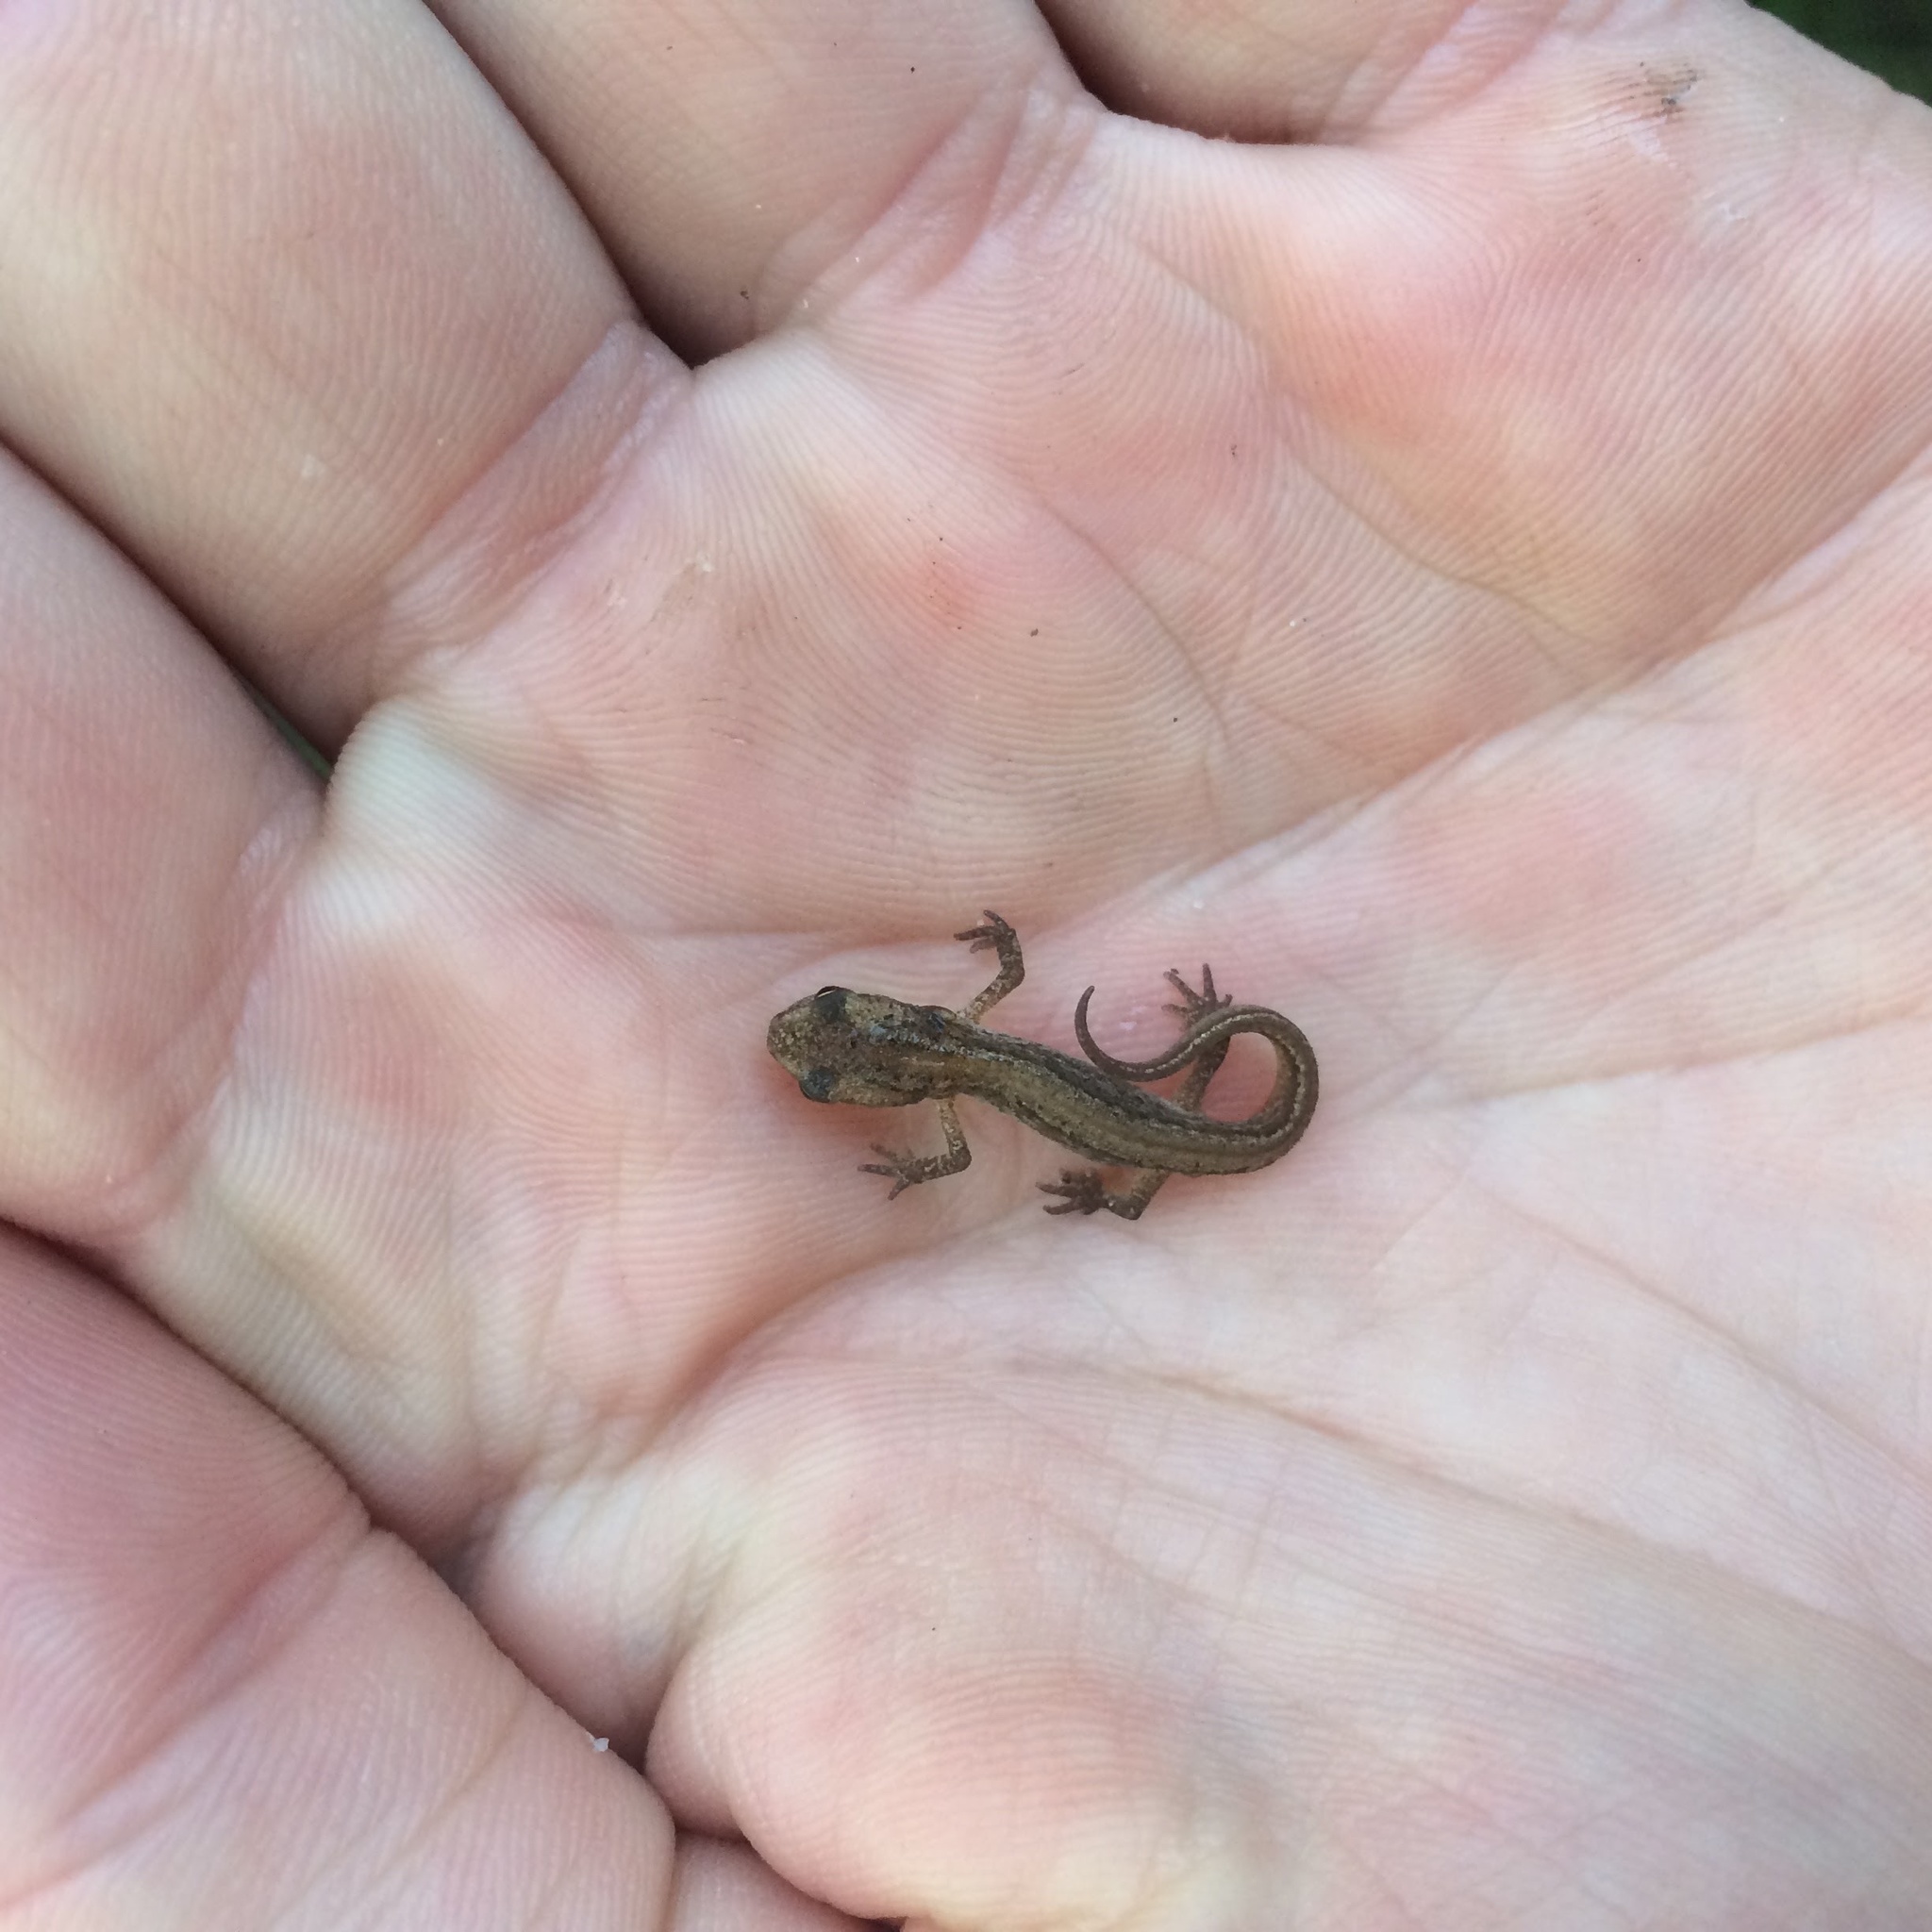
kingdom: Animalia
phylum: Chordata
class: Amphibia
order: Caudata
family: Salamandridae
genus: Lissotriton
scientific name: Lissotriton vulgaris
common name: Smooth newt
